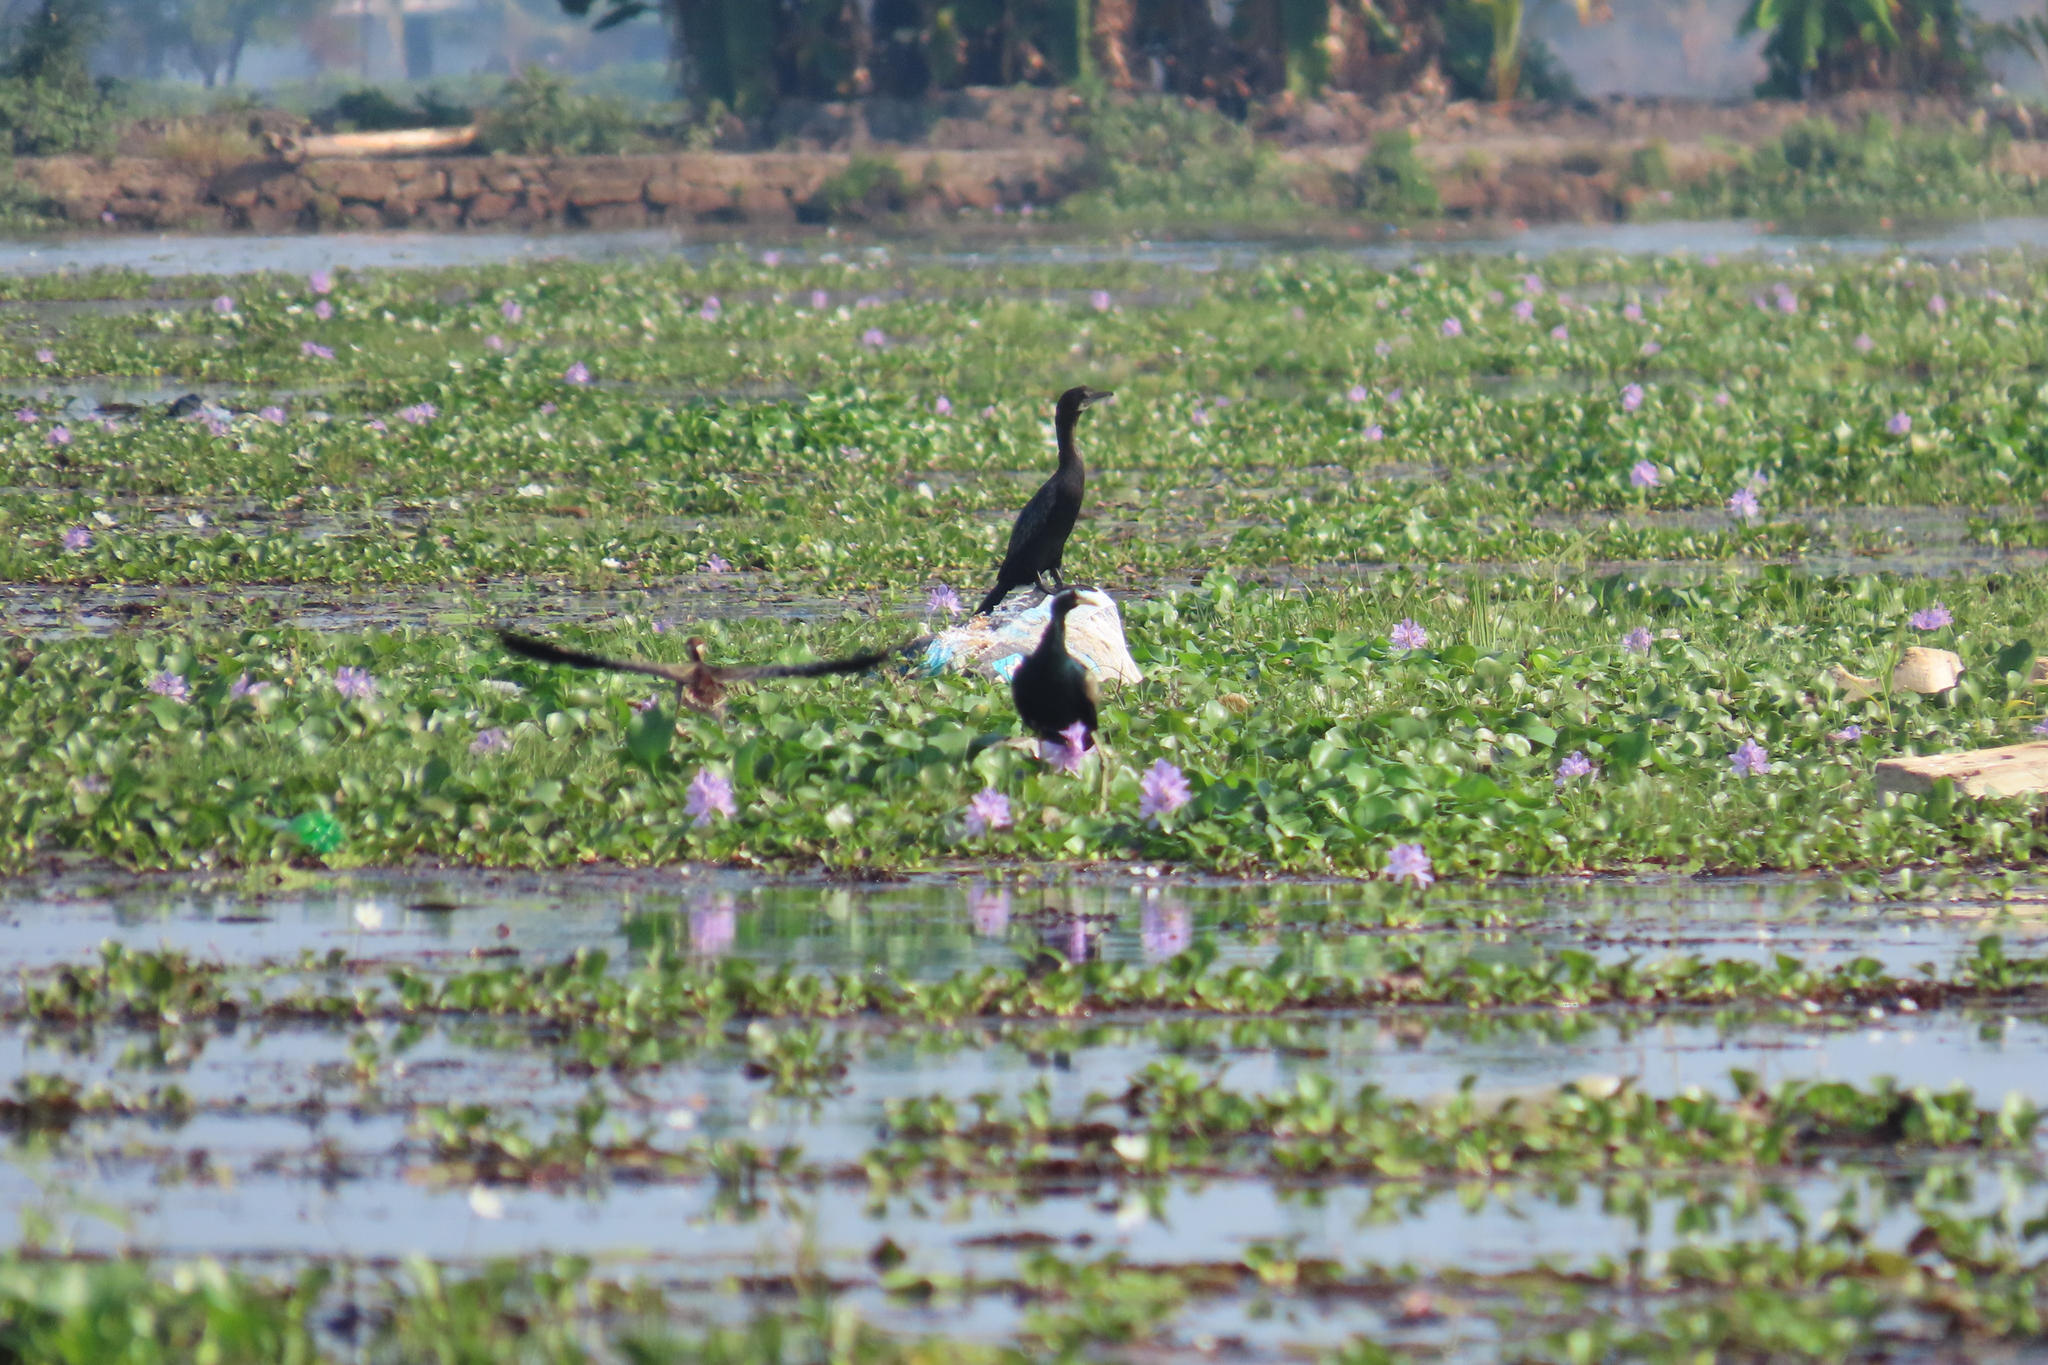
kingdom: Animalia
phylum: Chordata
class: Aves
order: Suliformes
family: Phalacrocoracidae
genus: Microcarbo
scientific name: Microcarbo niger
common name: Little cormorant
